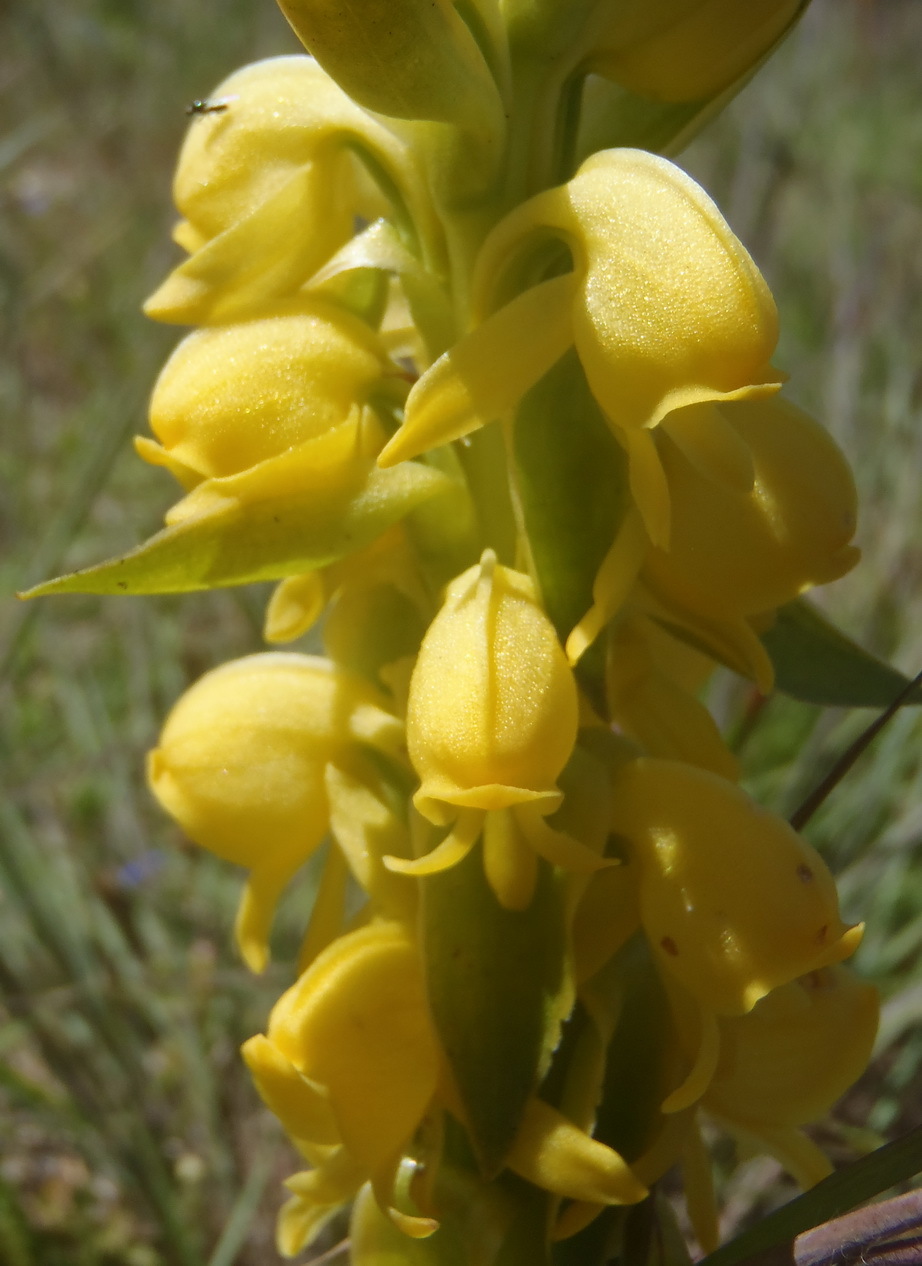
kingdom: Plantae
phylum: Tracheophyta
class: Liliopsida
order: Asparagales
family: Orchidaceae
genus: Satyrium
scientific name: Satyrium coriifolium
